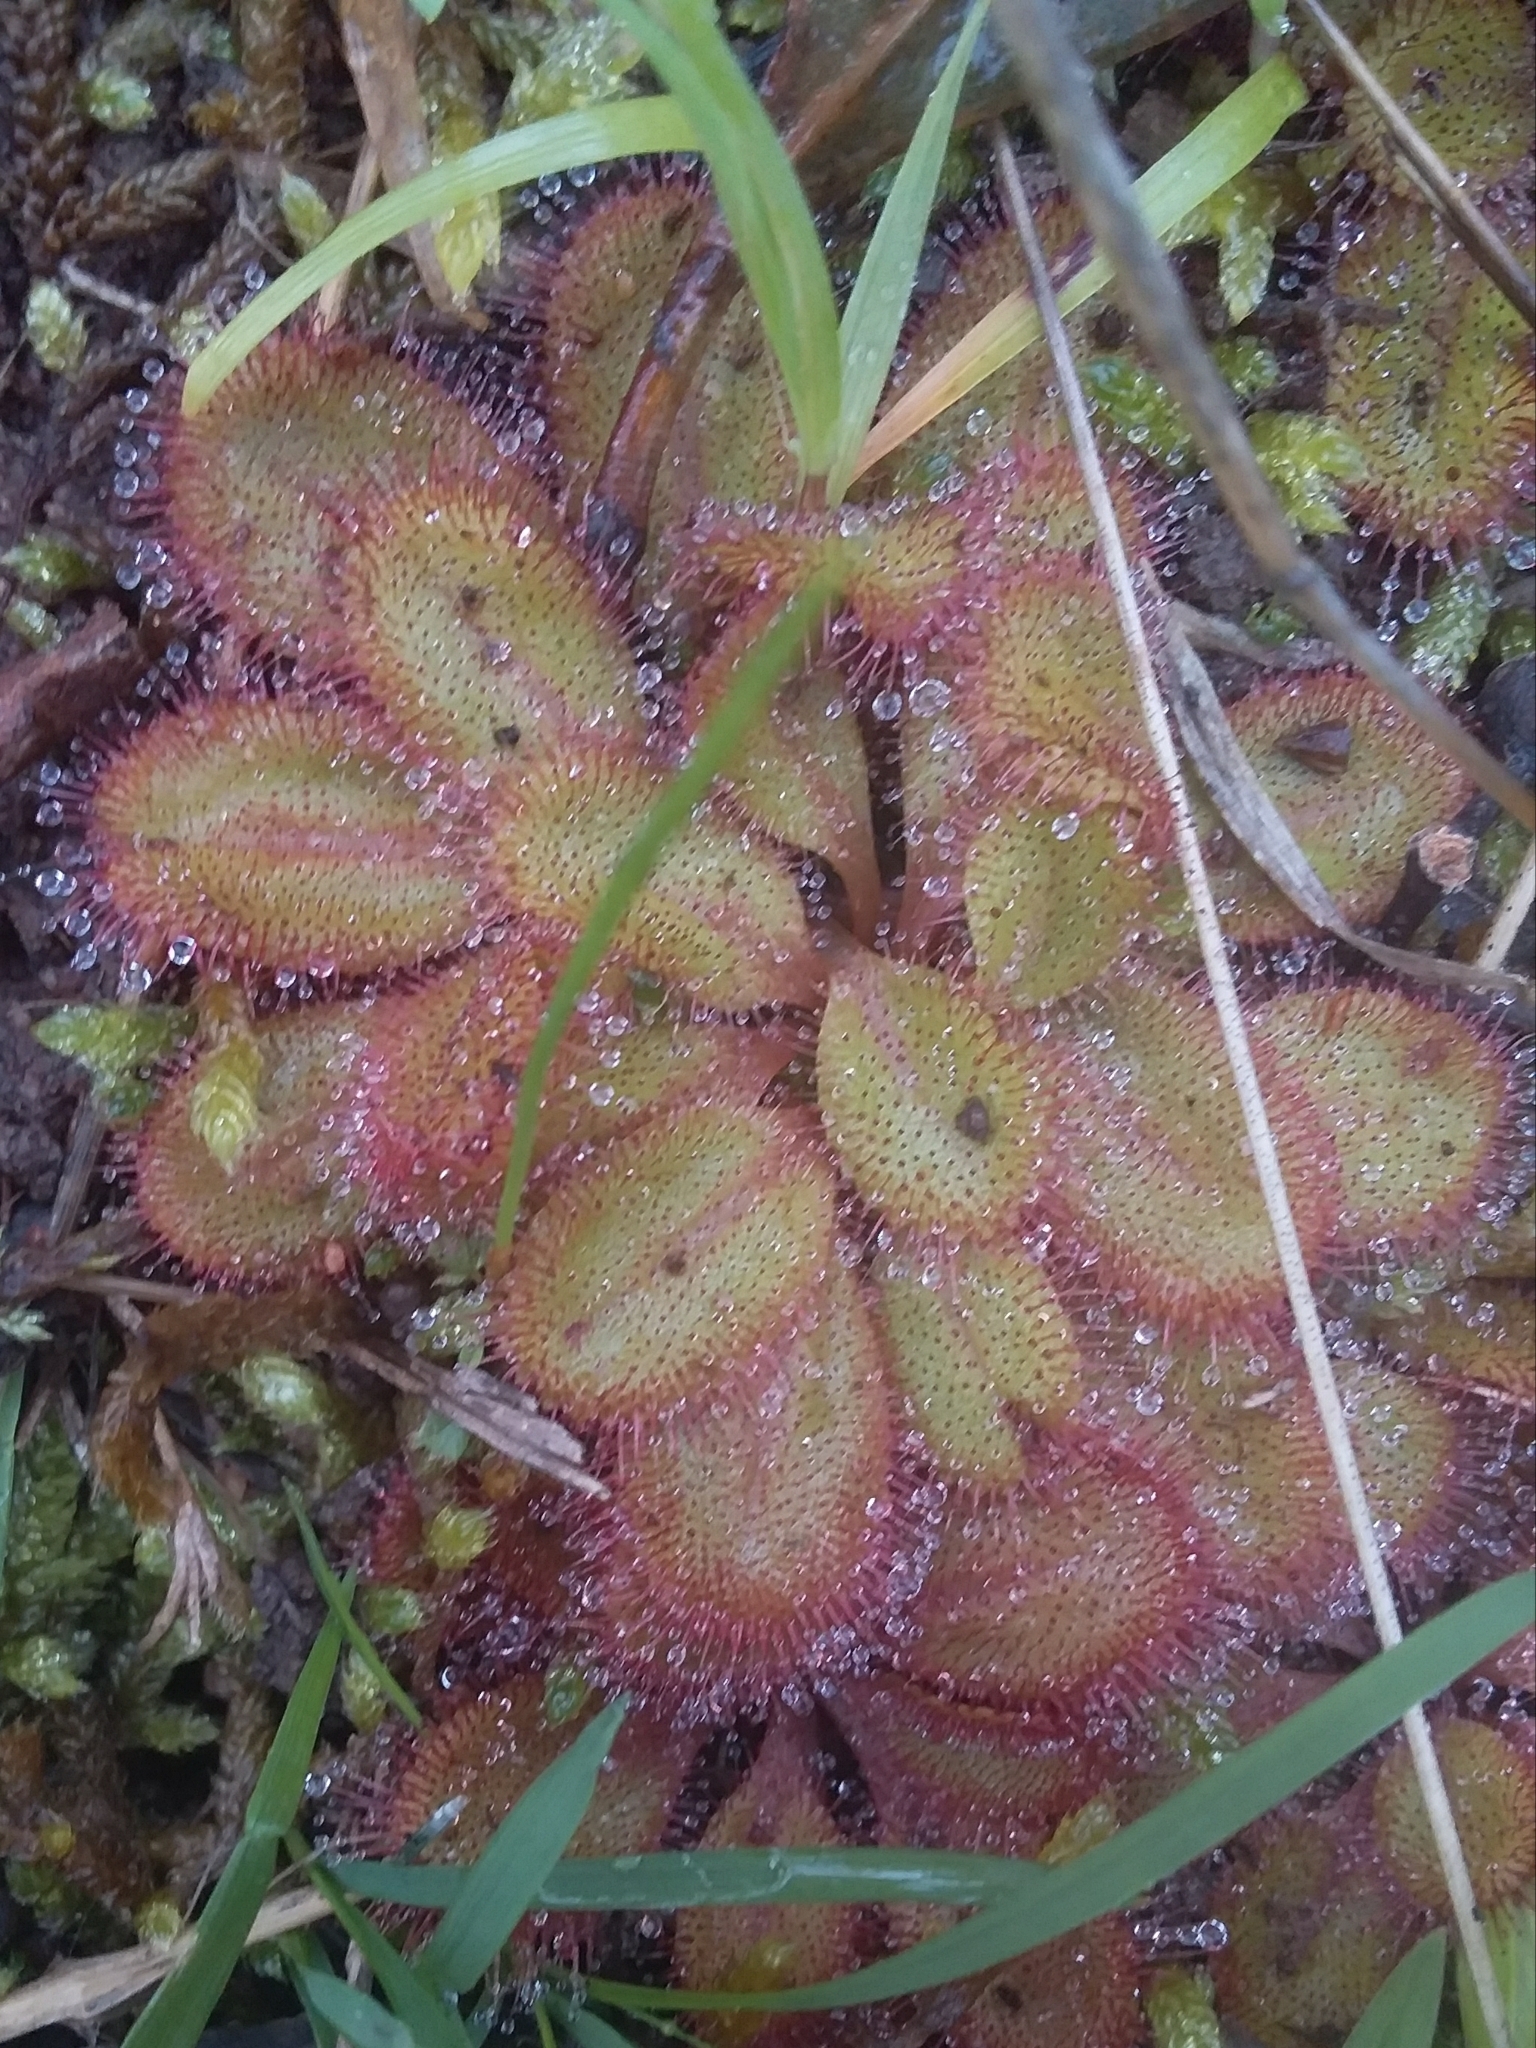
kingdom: Plantae
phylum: Tracheophyta
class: Magnoliopsida
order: Caryophyllales
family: Droseraceae
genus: Drosera
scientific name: Drosera praefolia
